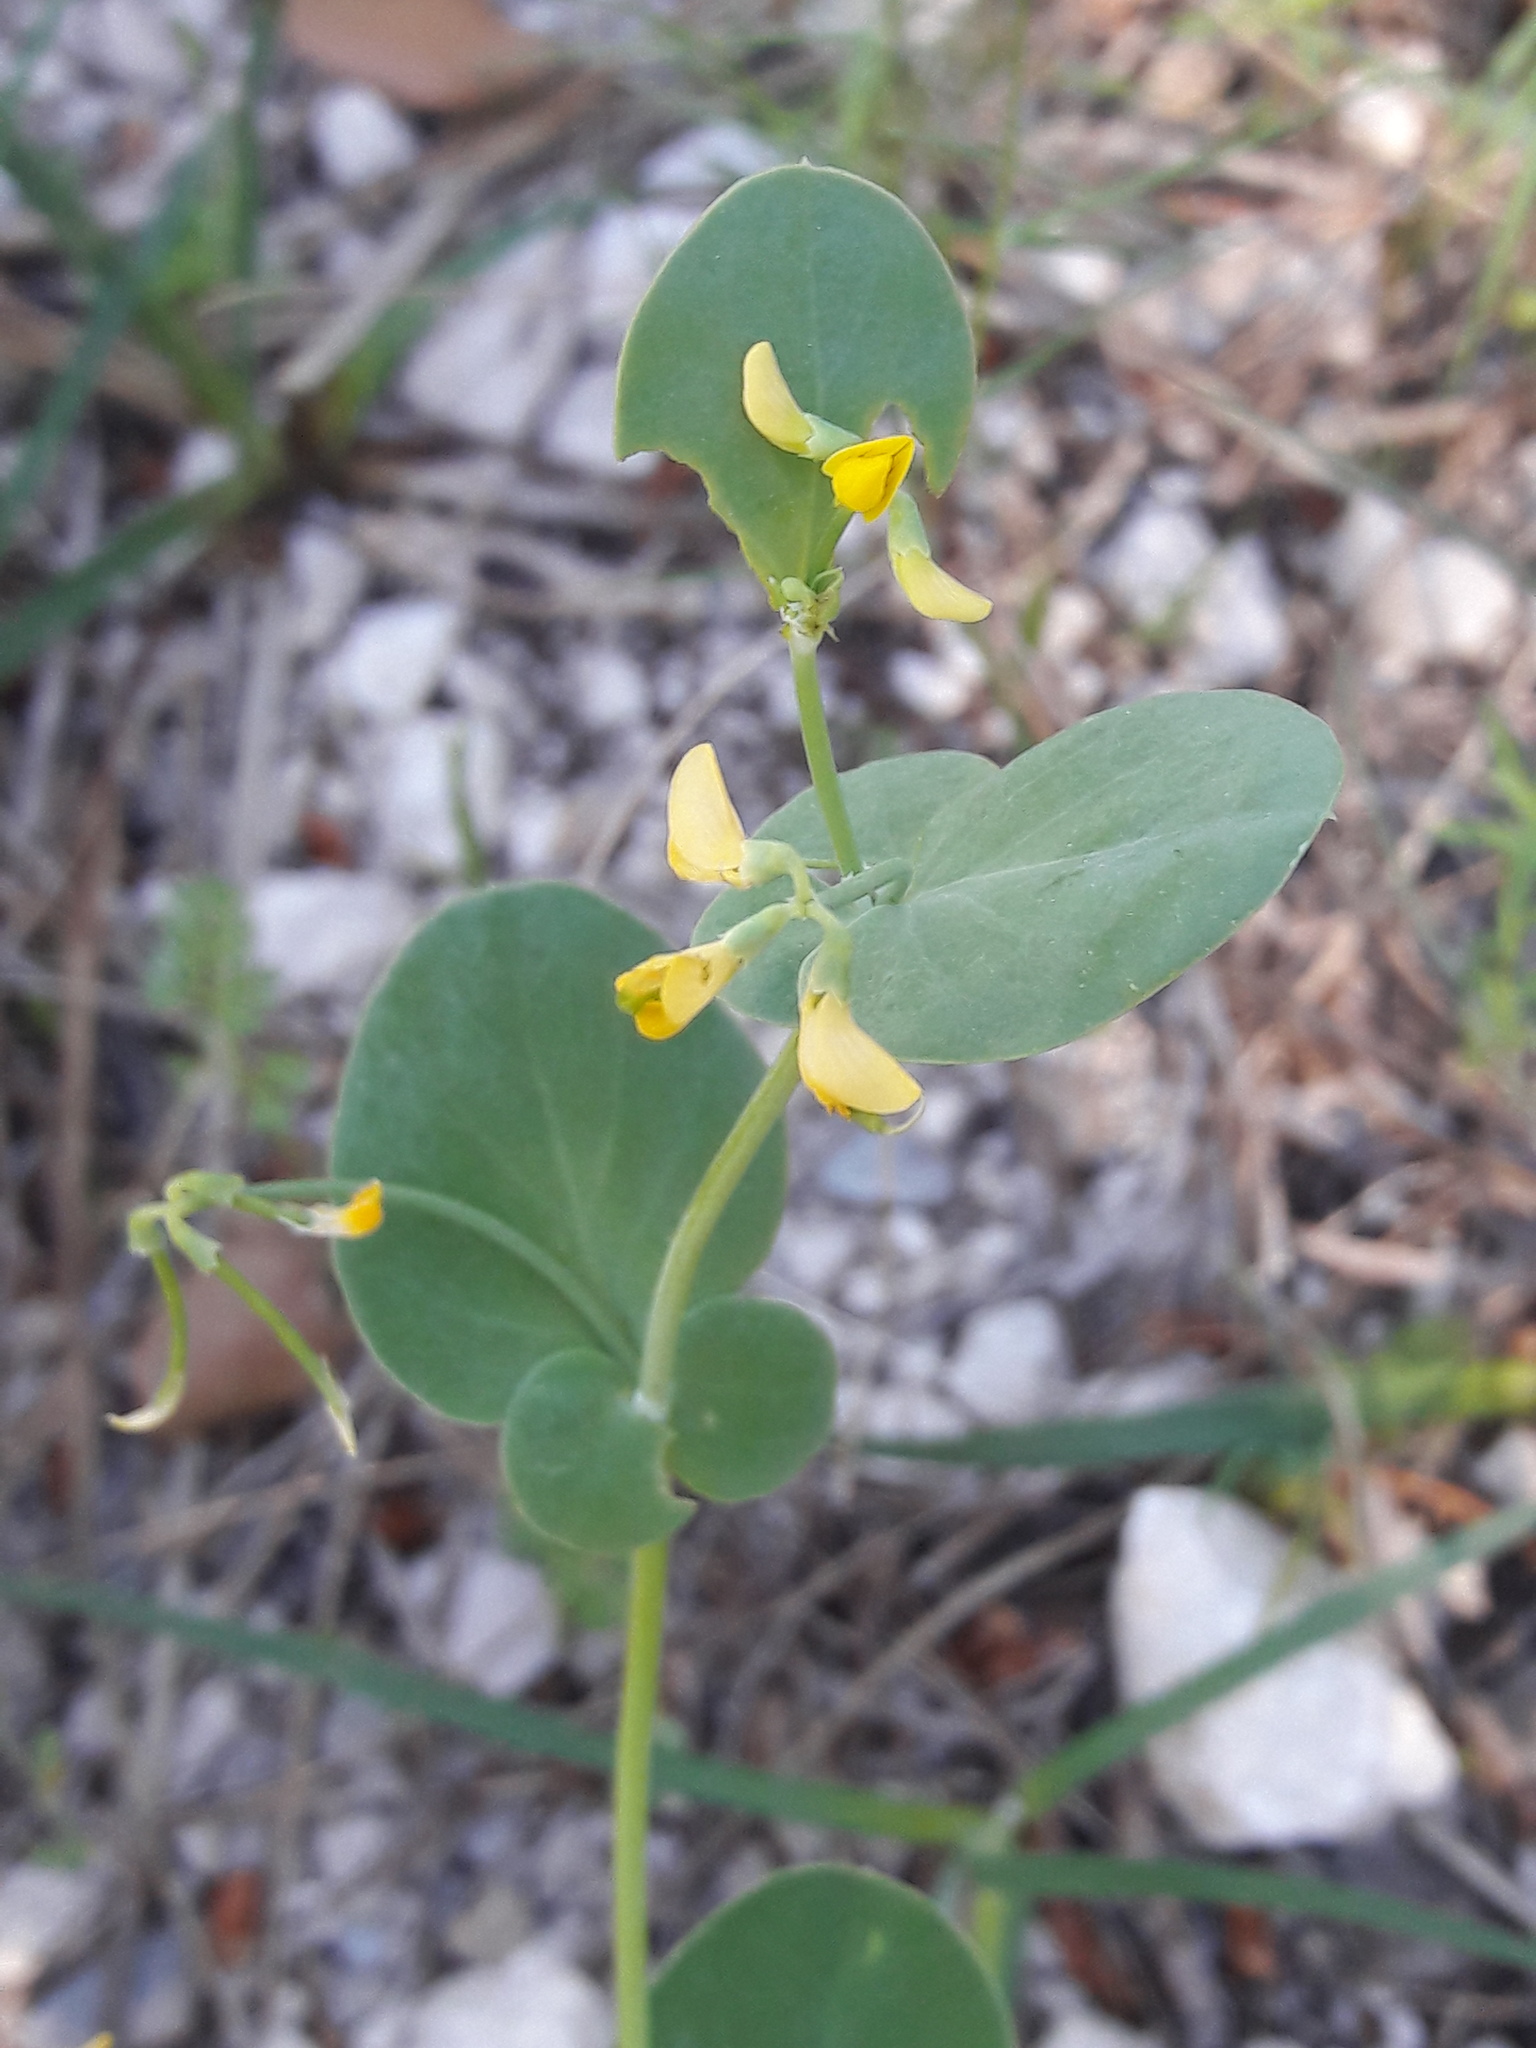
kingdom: Plantae
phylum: Tracheophyta
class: Magnoliopsida
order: Fabales
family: Fabaceae
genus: Coronilla
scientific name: Coronilla scorpioides
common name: Annual scorpion-vetch
